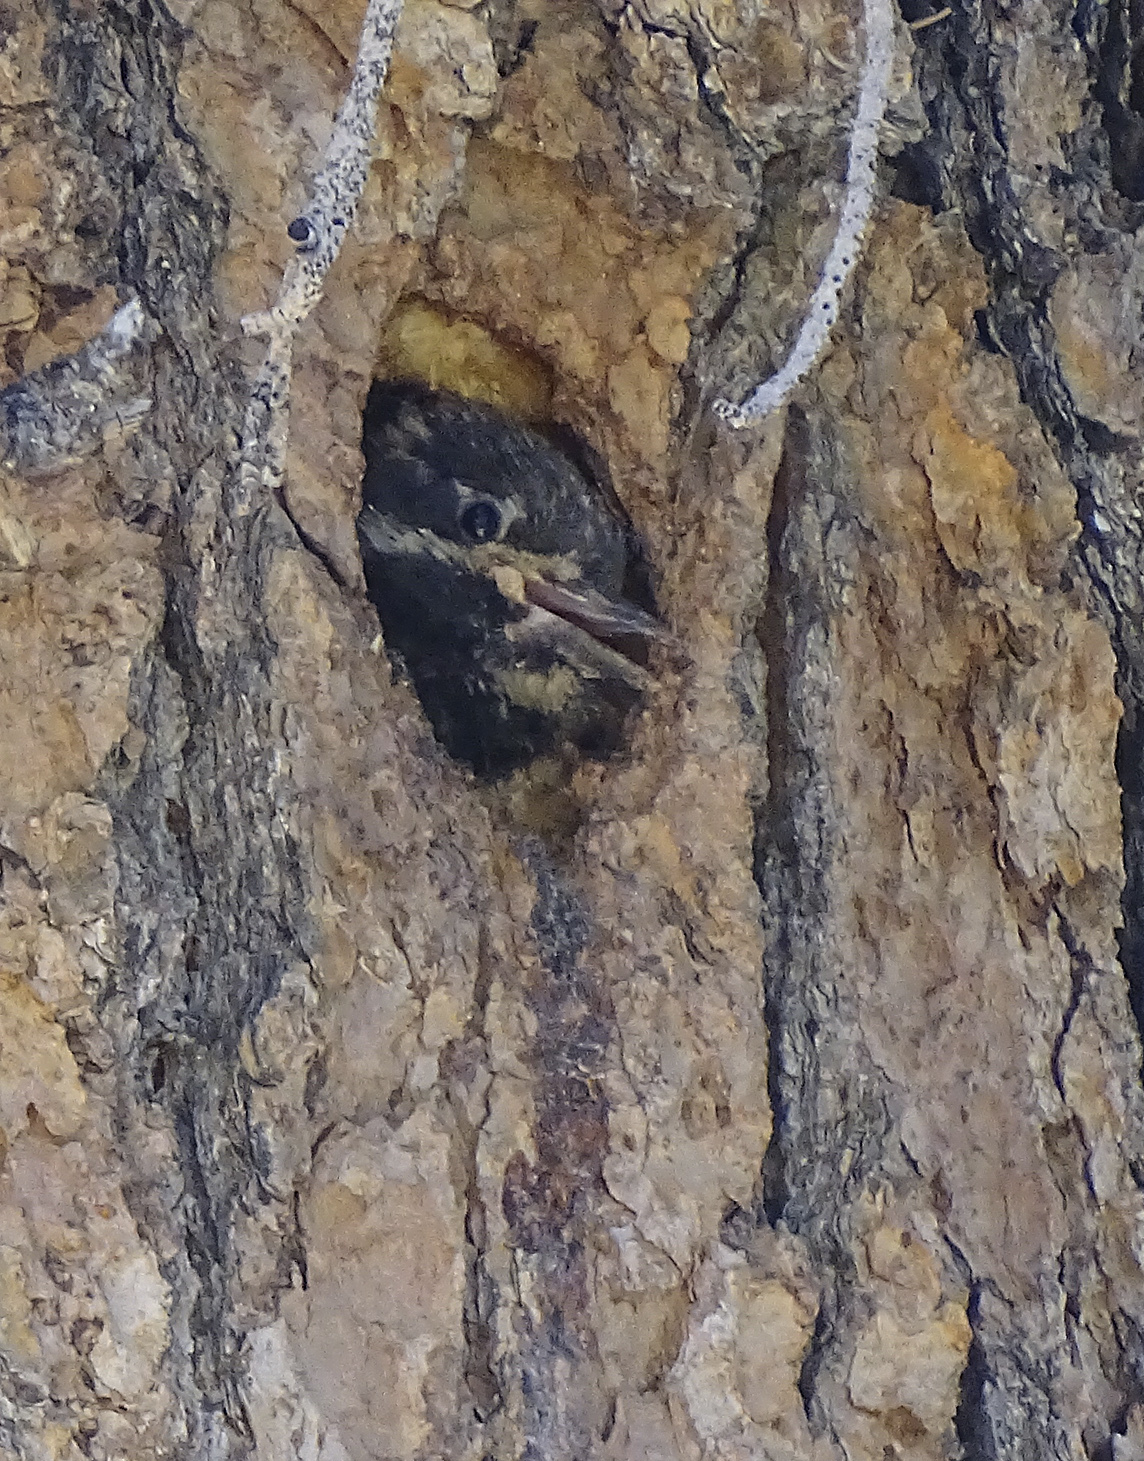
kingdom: Animalia
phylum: Chordata
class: Aves
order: Piciformes
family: Picidae
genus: Sphyrapicus
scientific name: Sphyrapicus thyroideus
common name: Williamson's sapsucker
